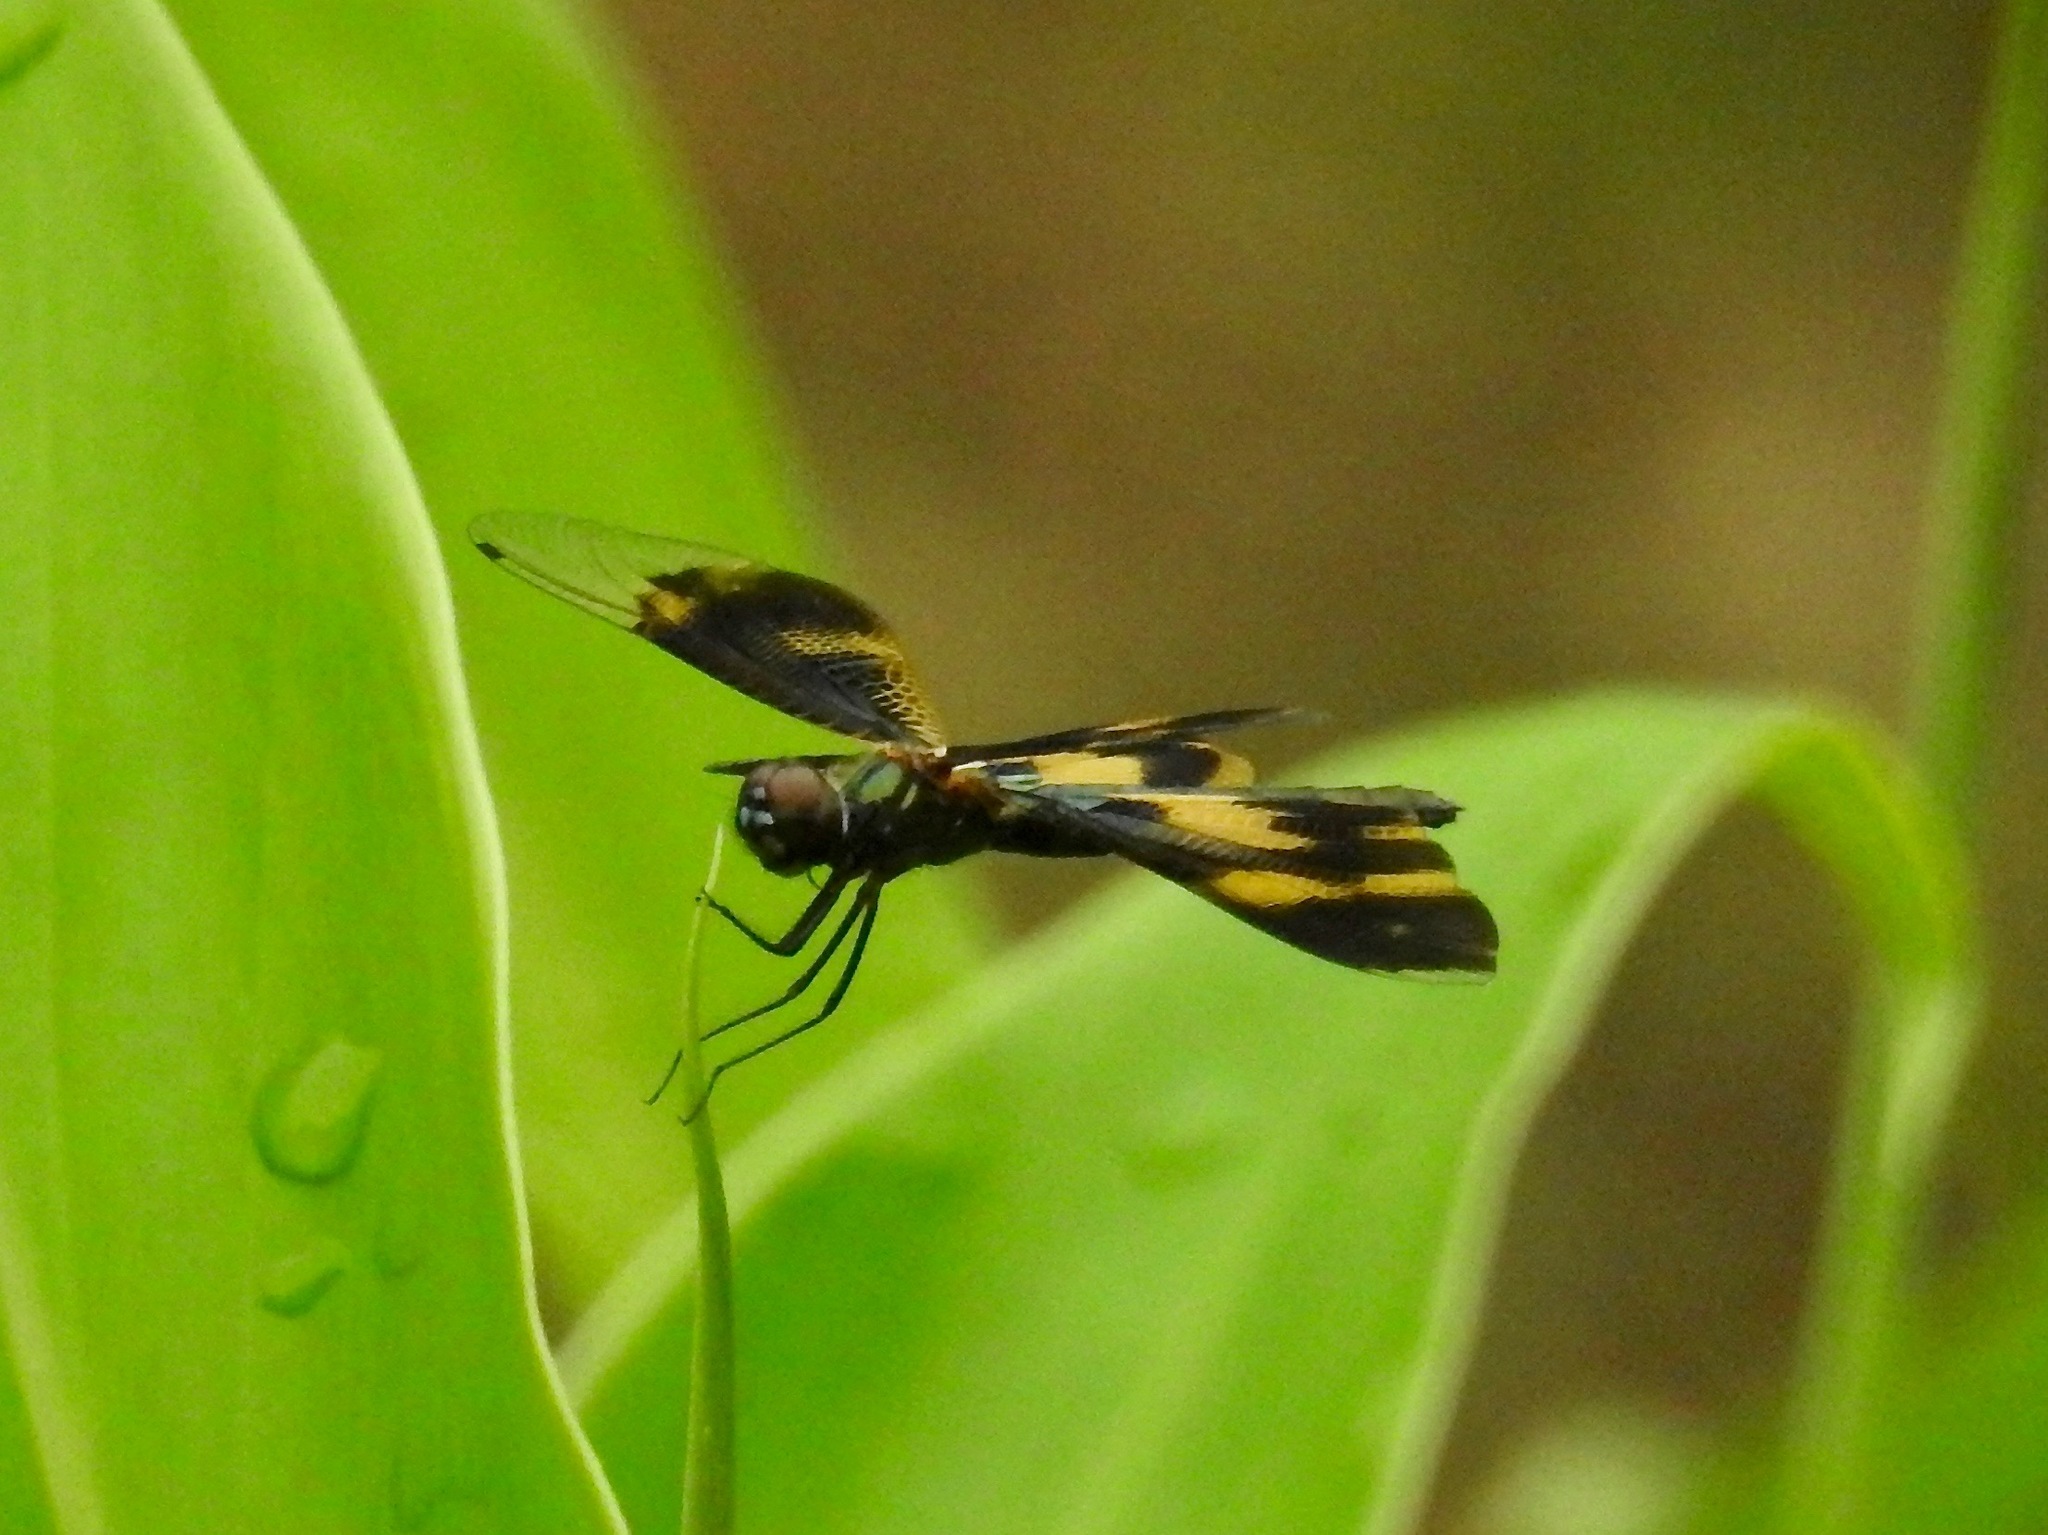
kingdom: Animalia
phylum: Arthropoda
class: Insecta
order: Odonata
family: Libellulidae
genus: Rhyothemis
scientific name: Rhyothemis variegata
